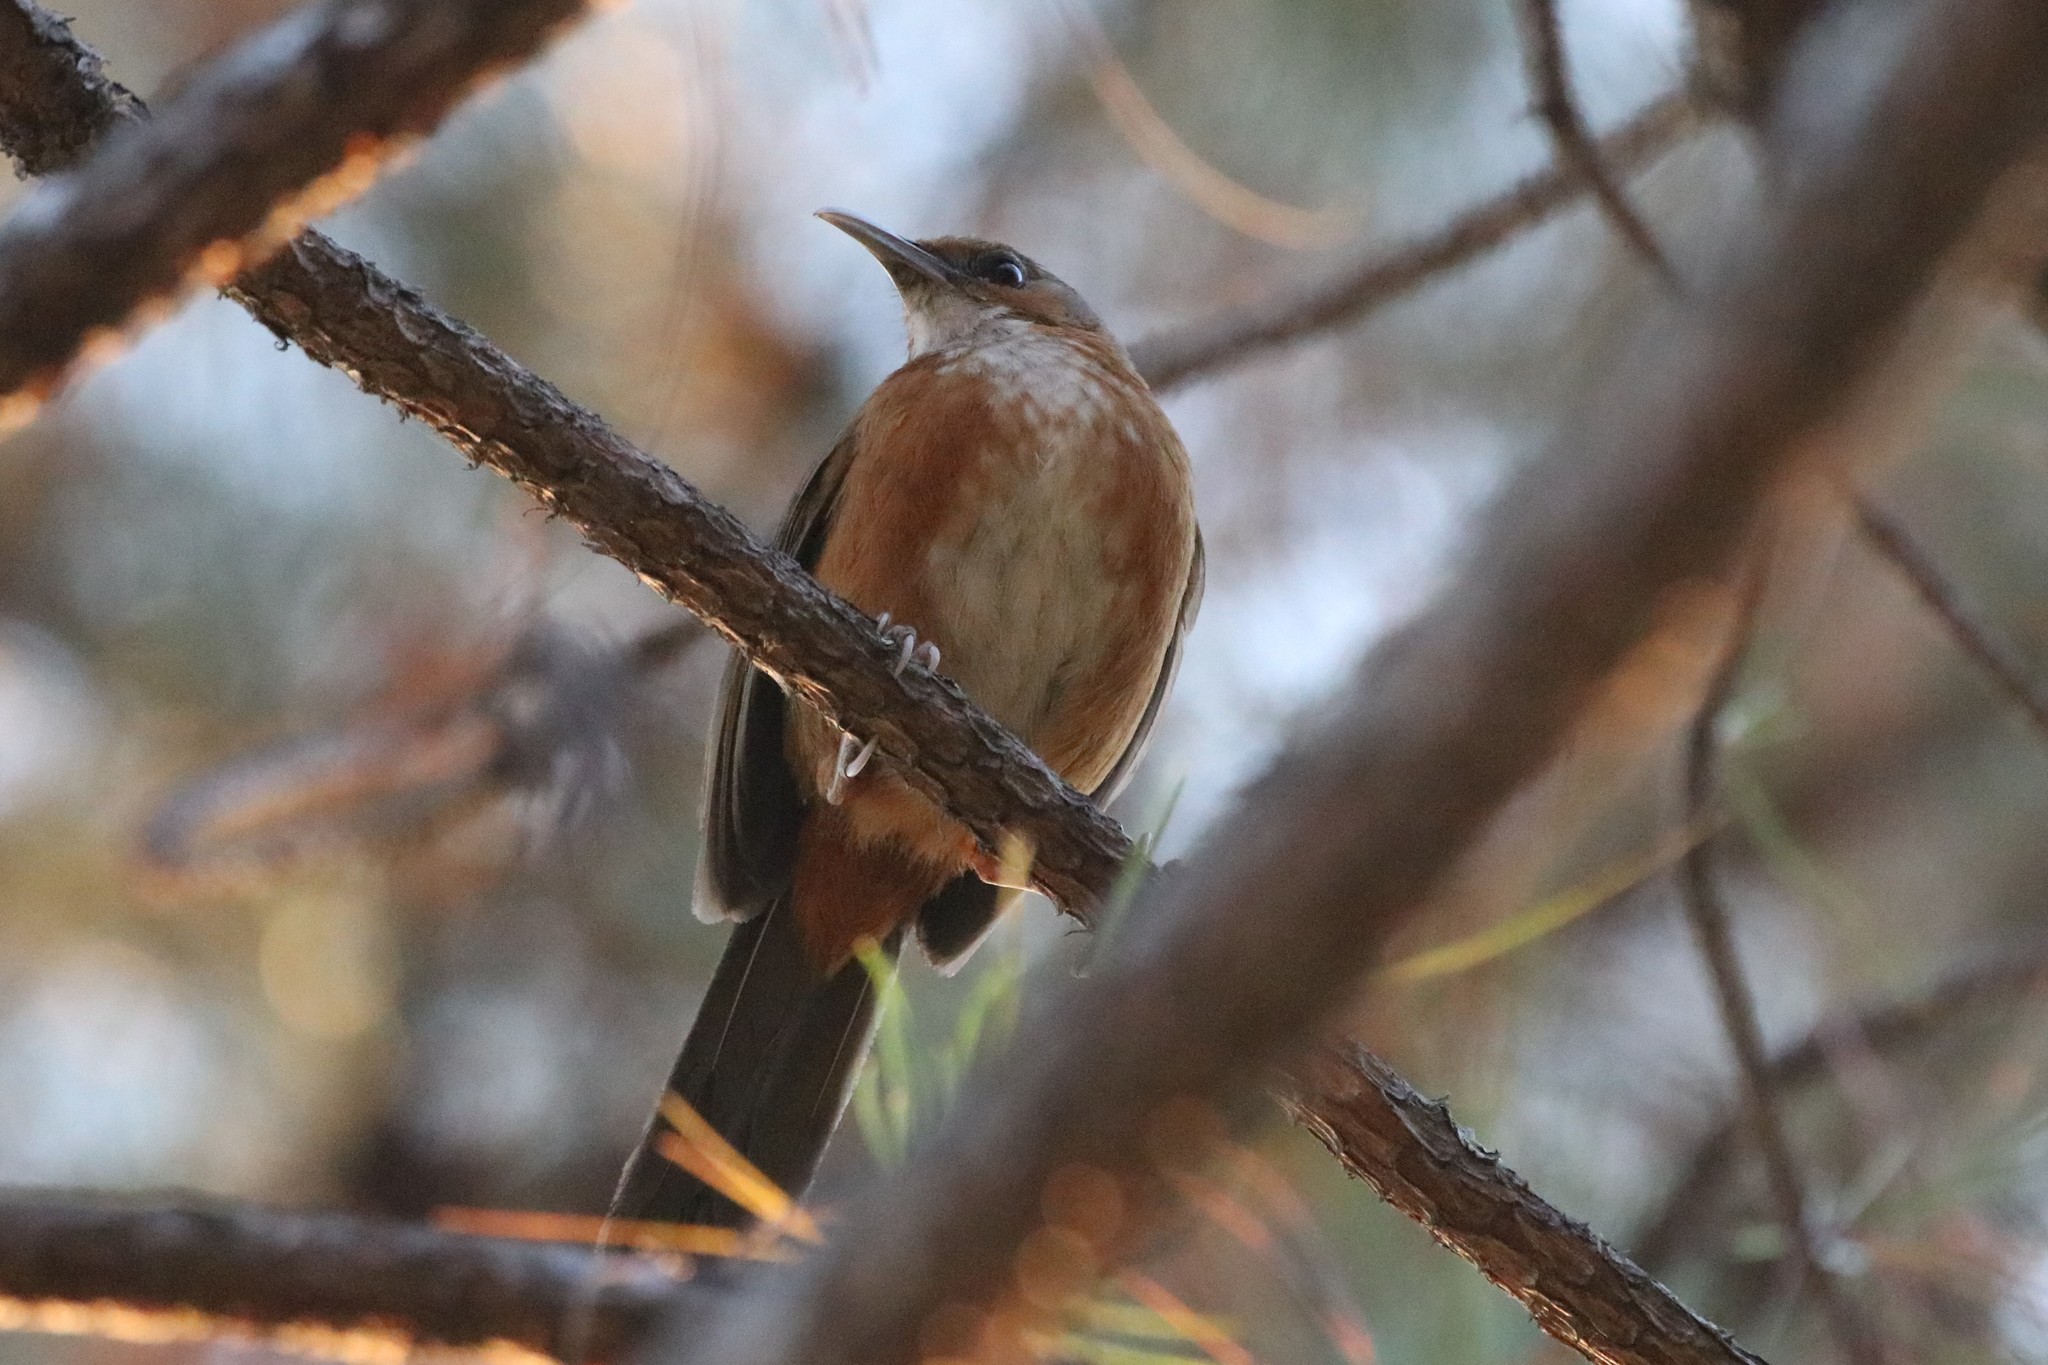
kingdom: Animalia
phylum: Chordata
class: Aves
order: Passeriformes
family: Timaliidae
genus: Pomatorhinus
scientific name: Pomatorhinus erythrogenys
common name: Rusty-cheeked scimitar babbler
